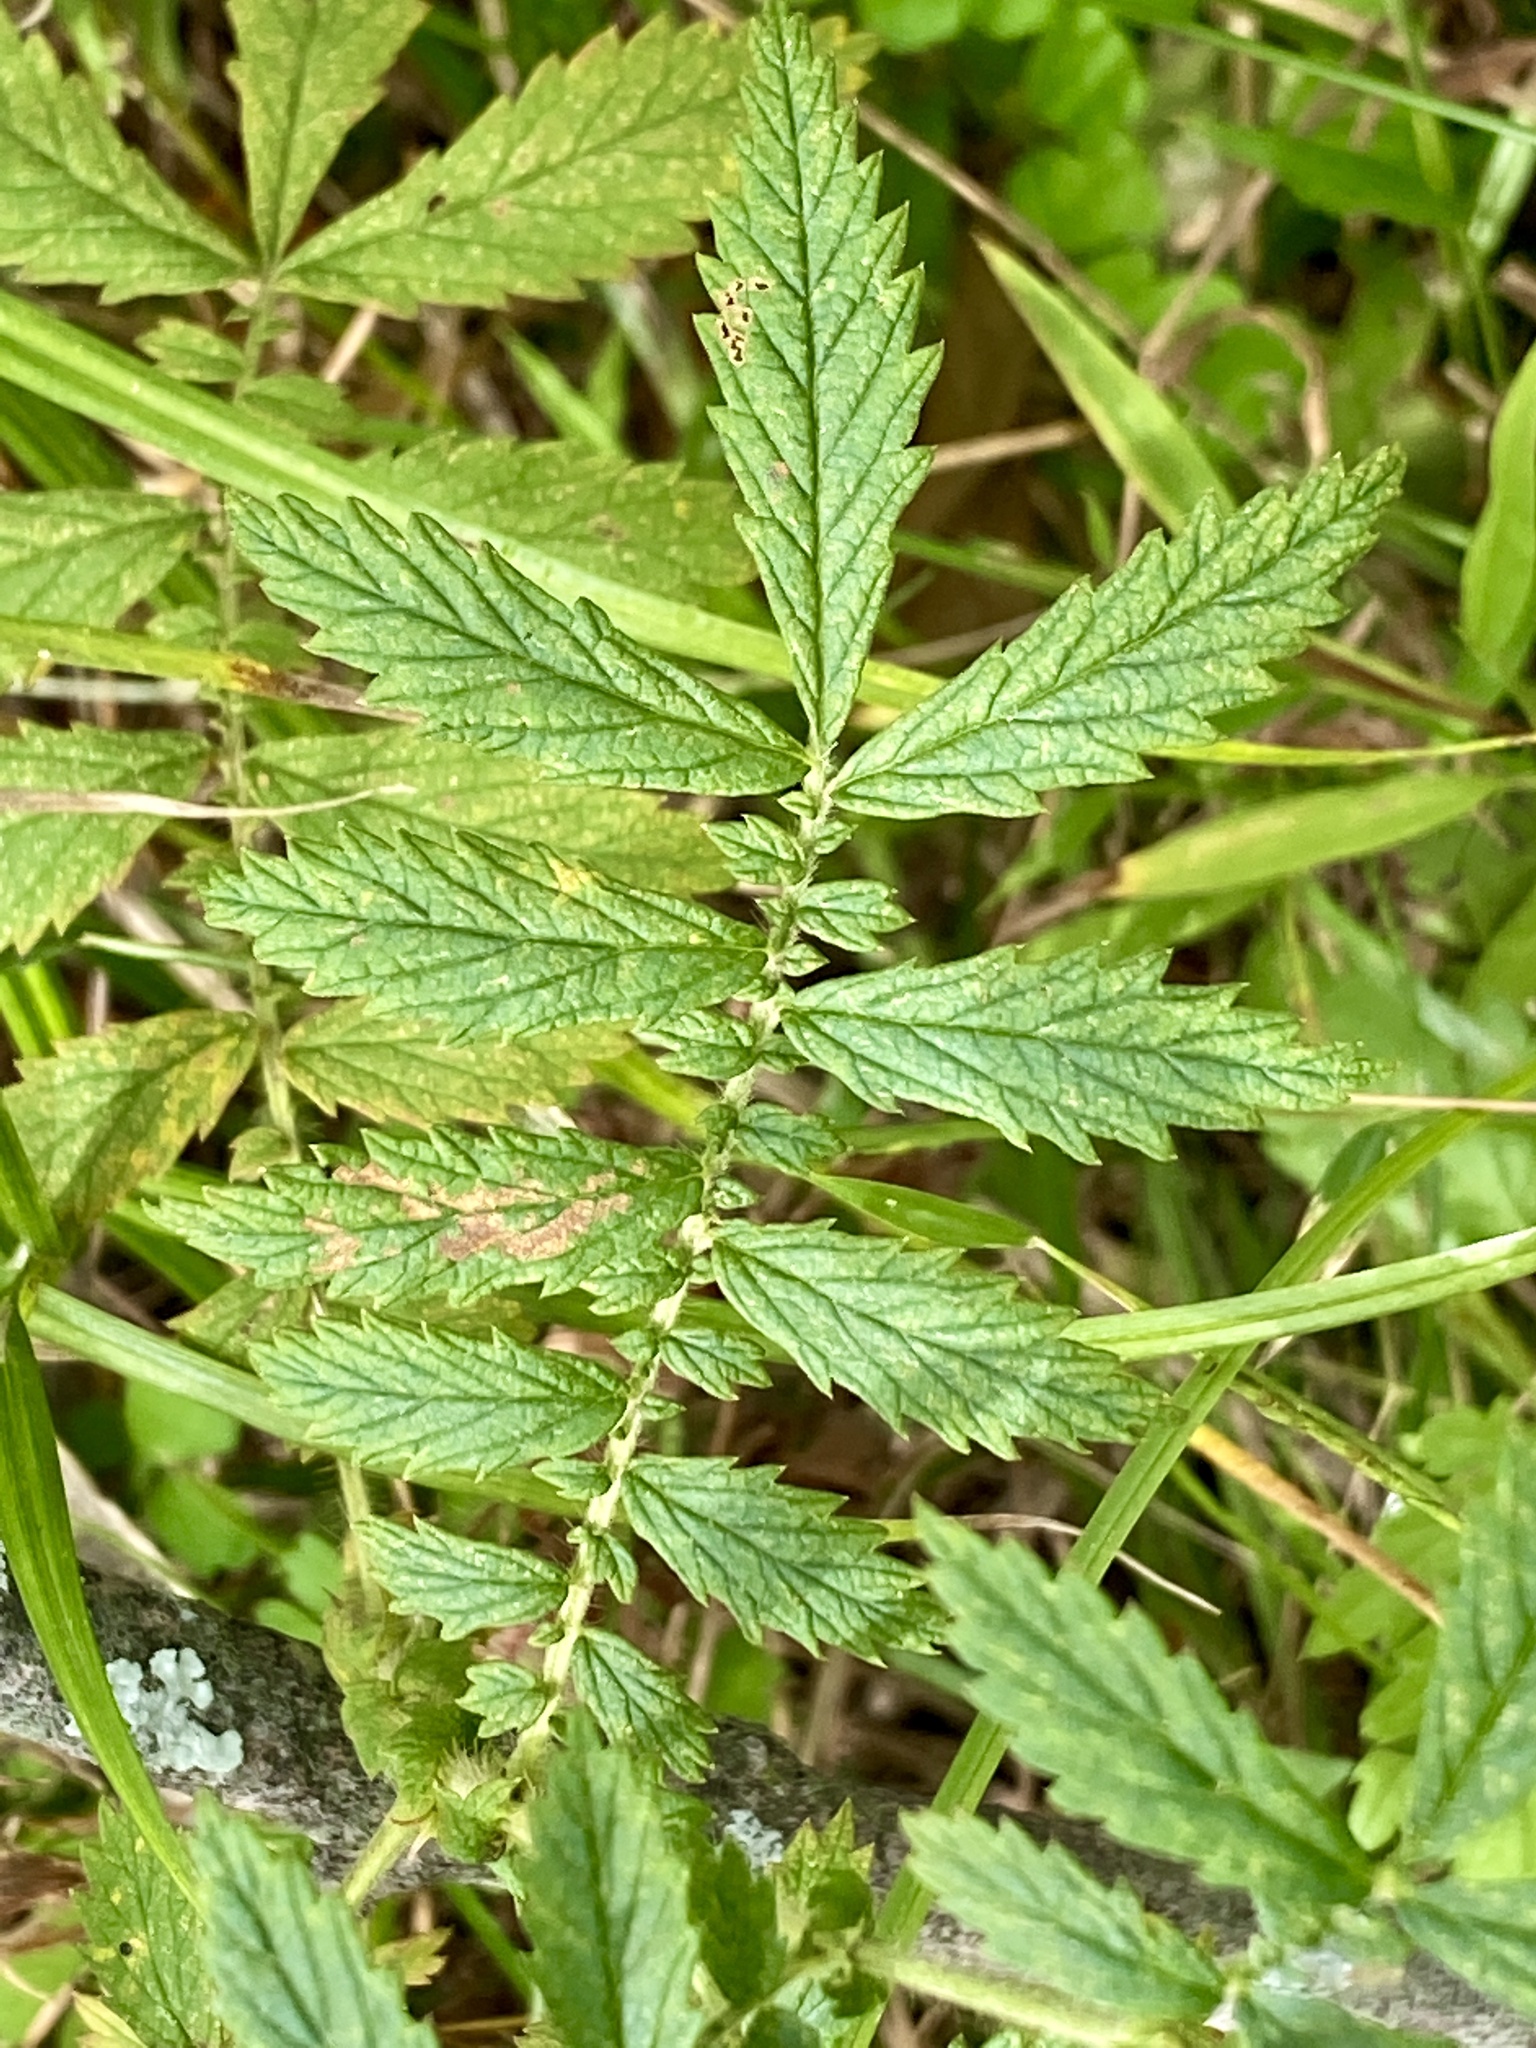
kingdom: Plantae
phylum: Tracheophyta
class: Magnoliopsida
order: Rosales
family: Rosaceae
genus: Agrimonia
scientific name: Agrimonia parviflora
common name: Harvest-lice
